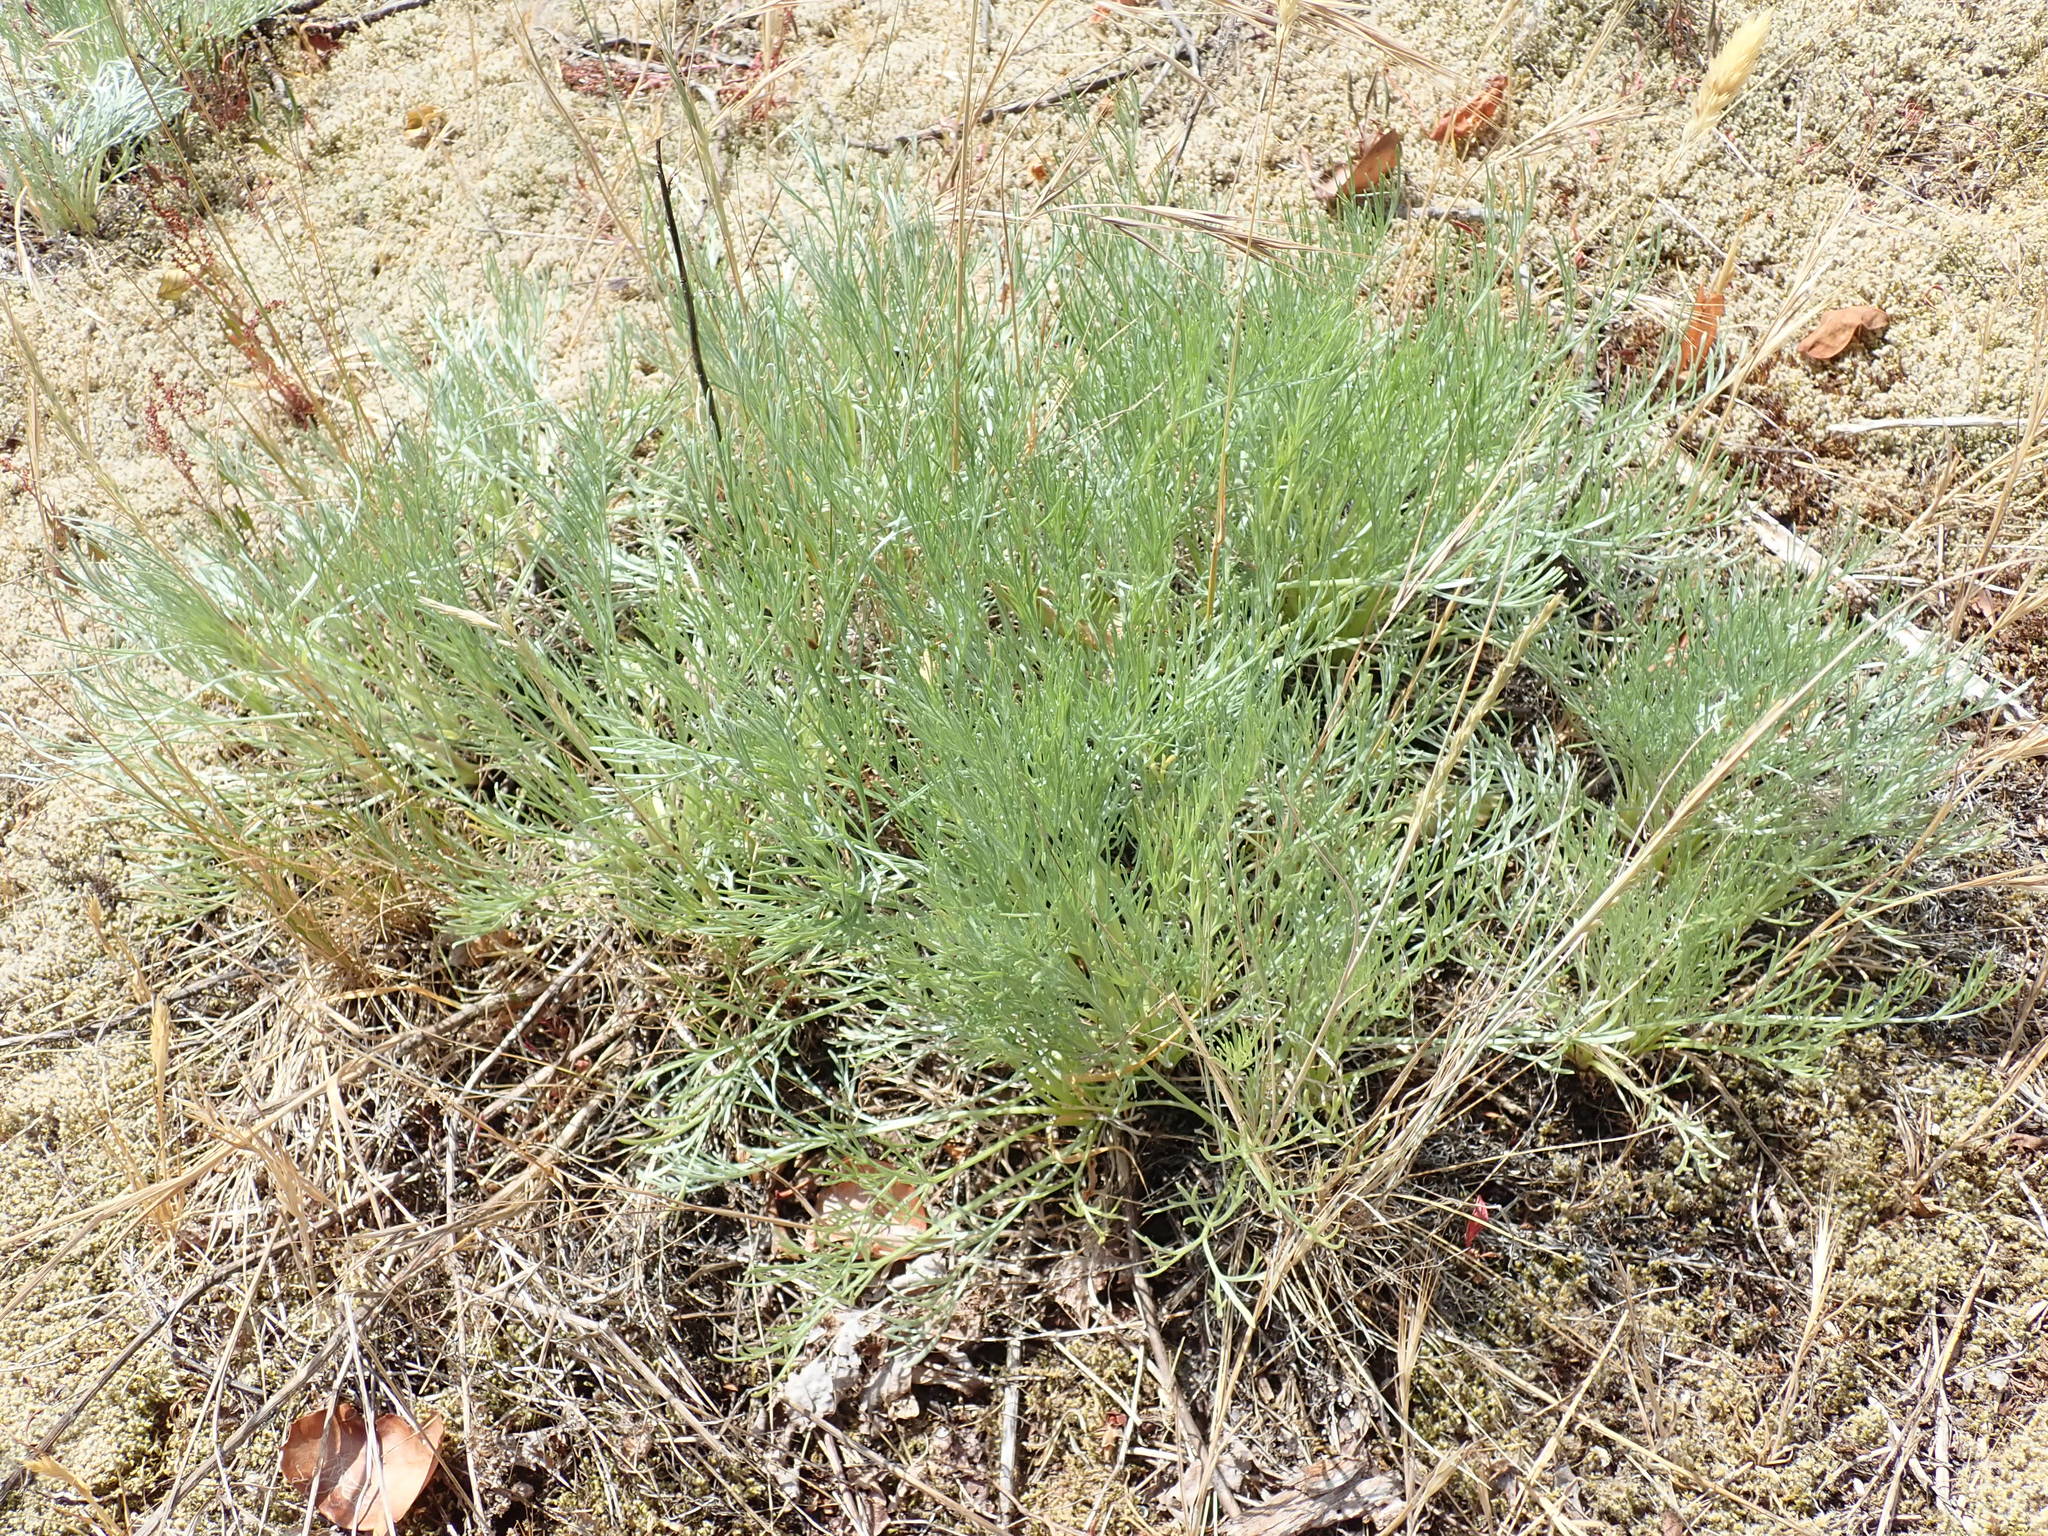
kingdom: Plantae
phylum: Tracheophyta
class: Magnoliopsida
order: Asterales
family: Asteraceae
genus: Artemisia
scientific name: Artemisia campestris
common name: Field wormwood
